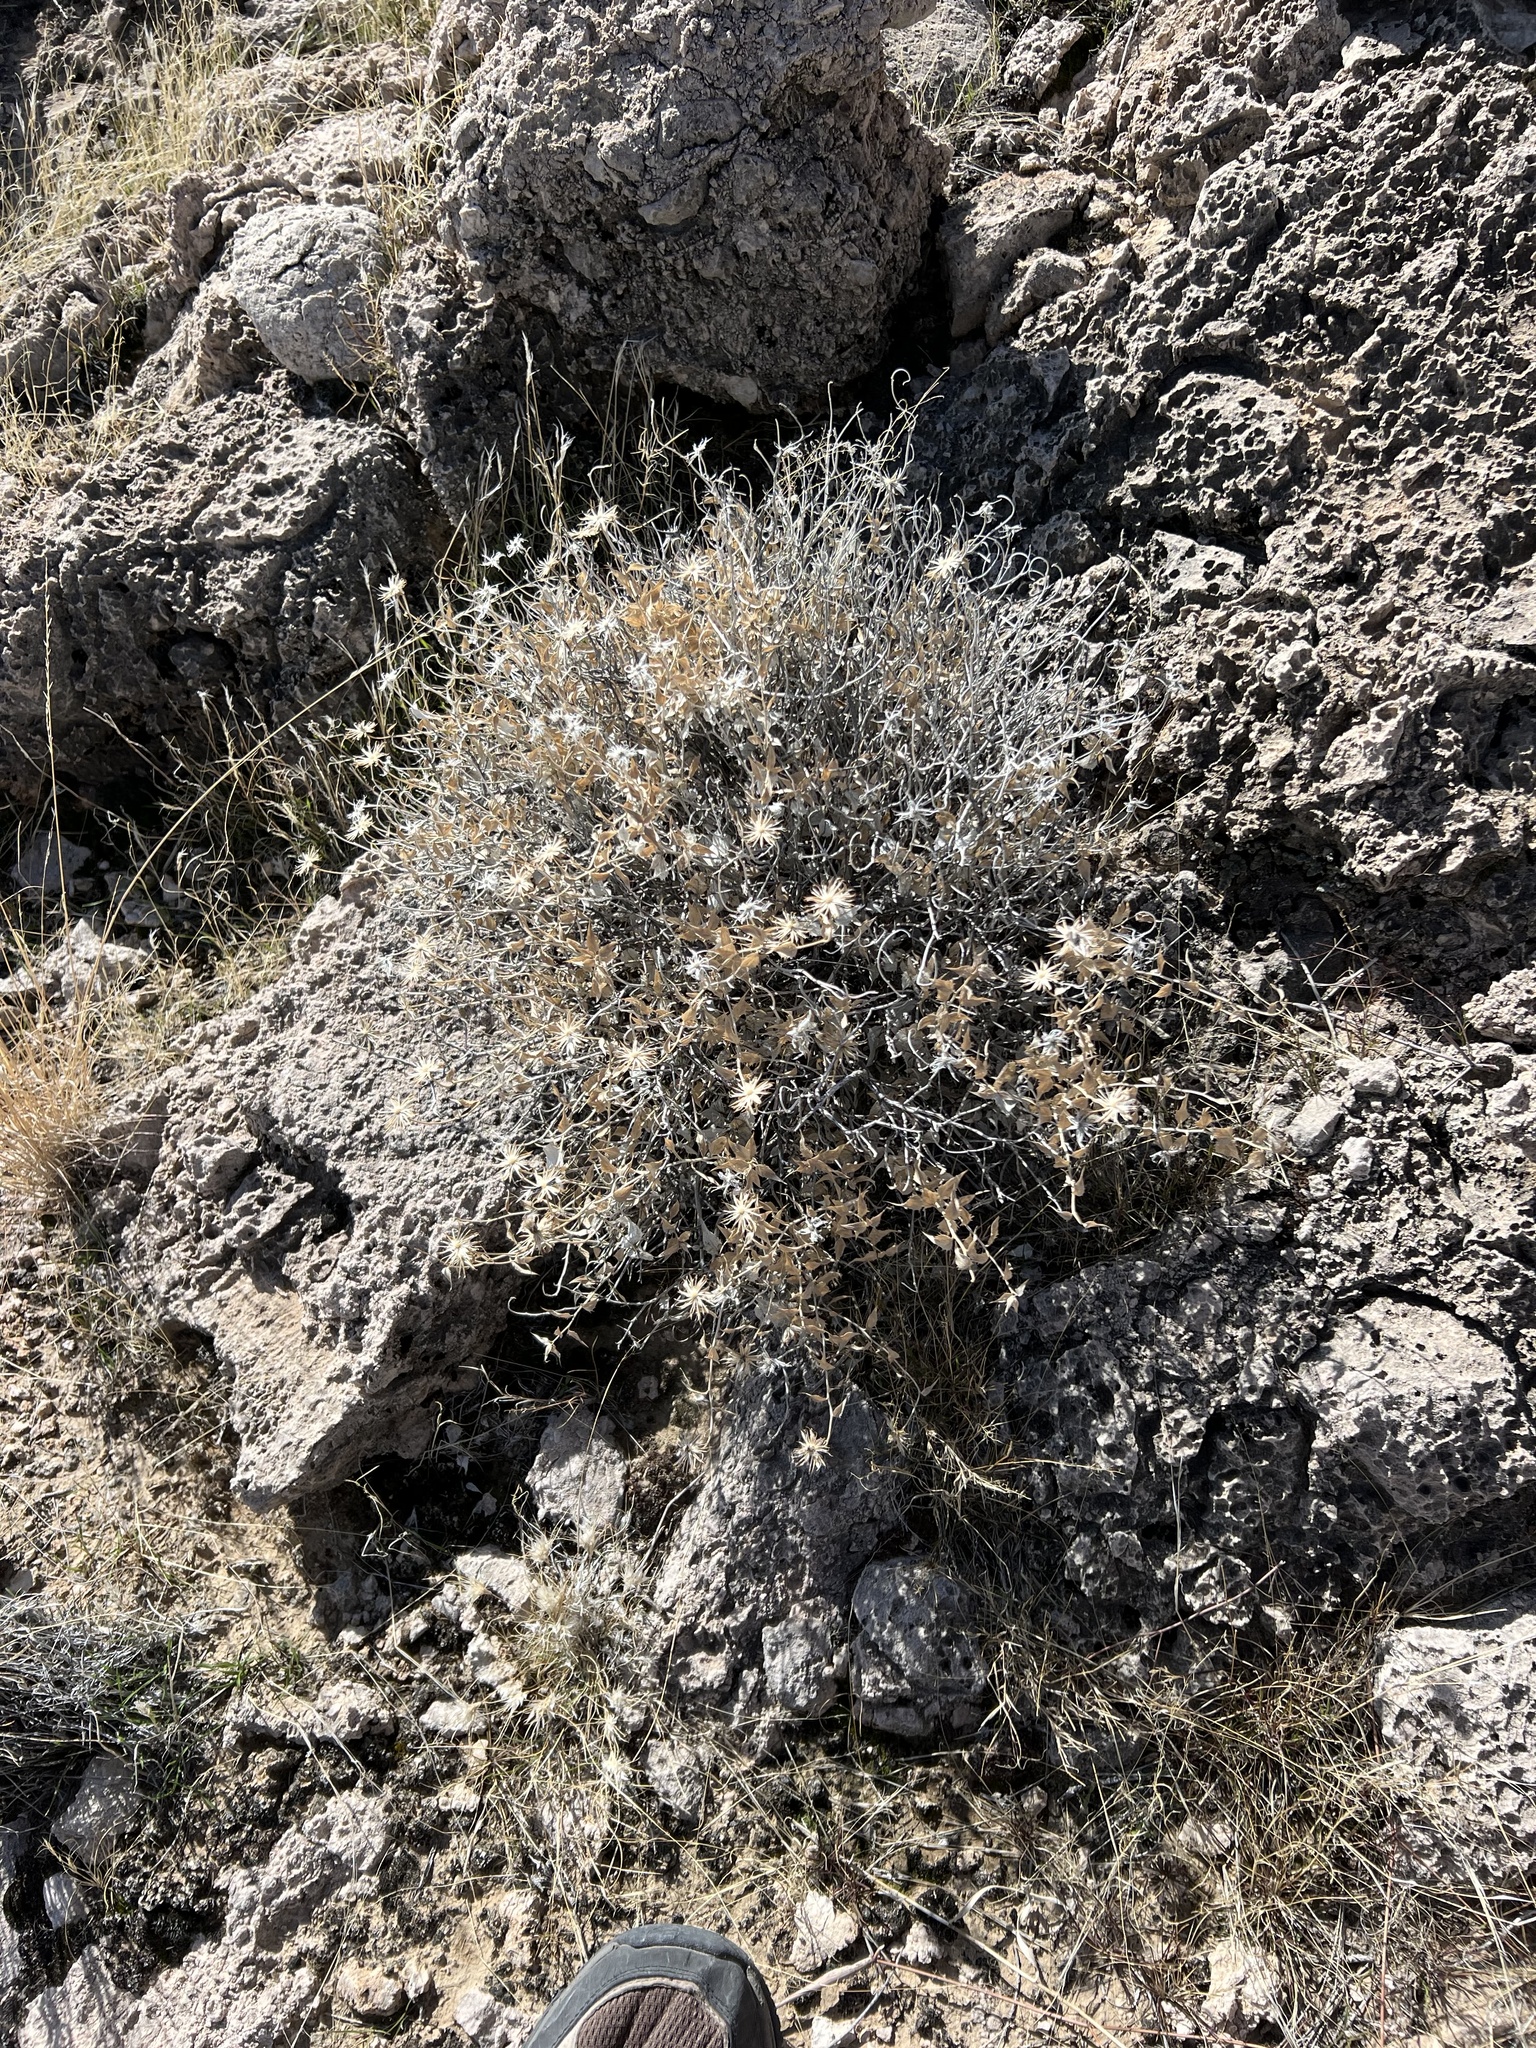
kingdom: Plantae
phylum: Tracheophyta
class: Magnoliopsida
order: Asterales
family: Asteraceae
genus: Brickellia
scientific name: Brickellia atractyloides
